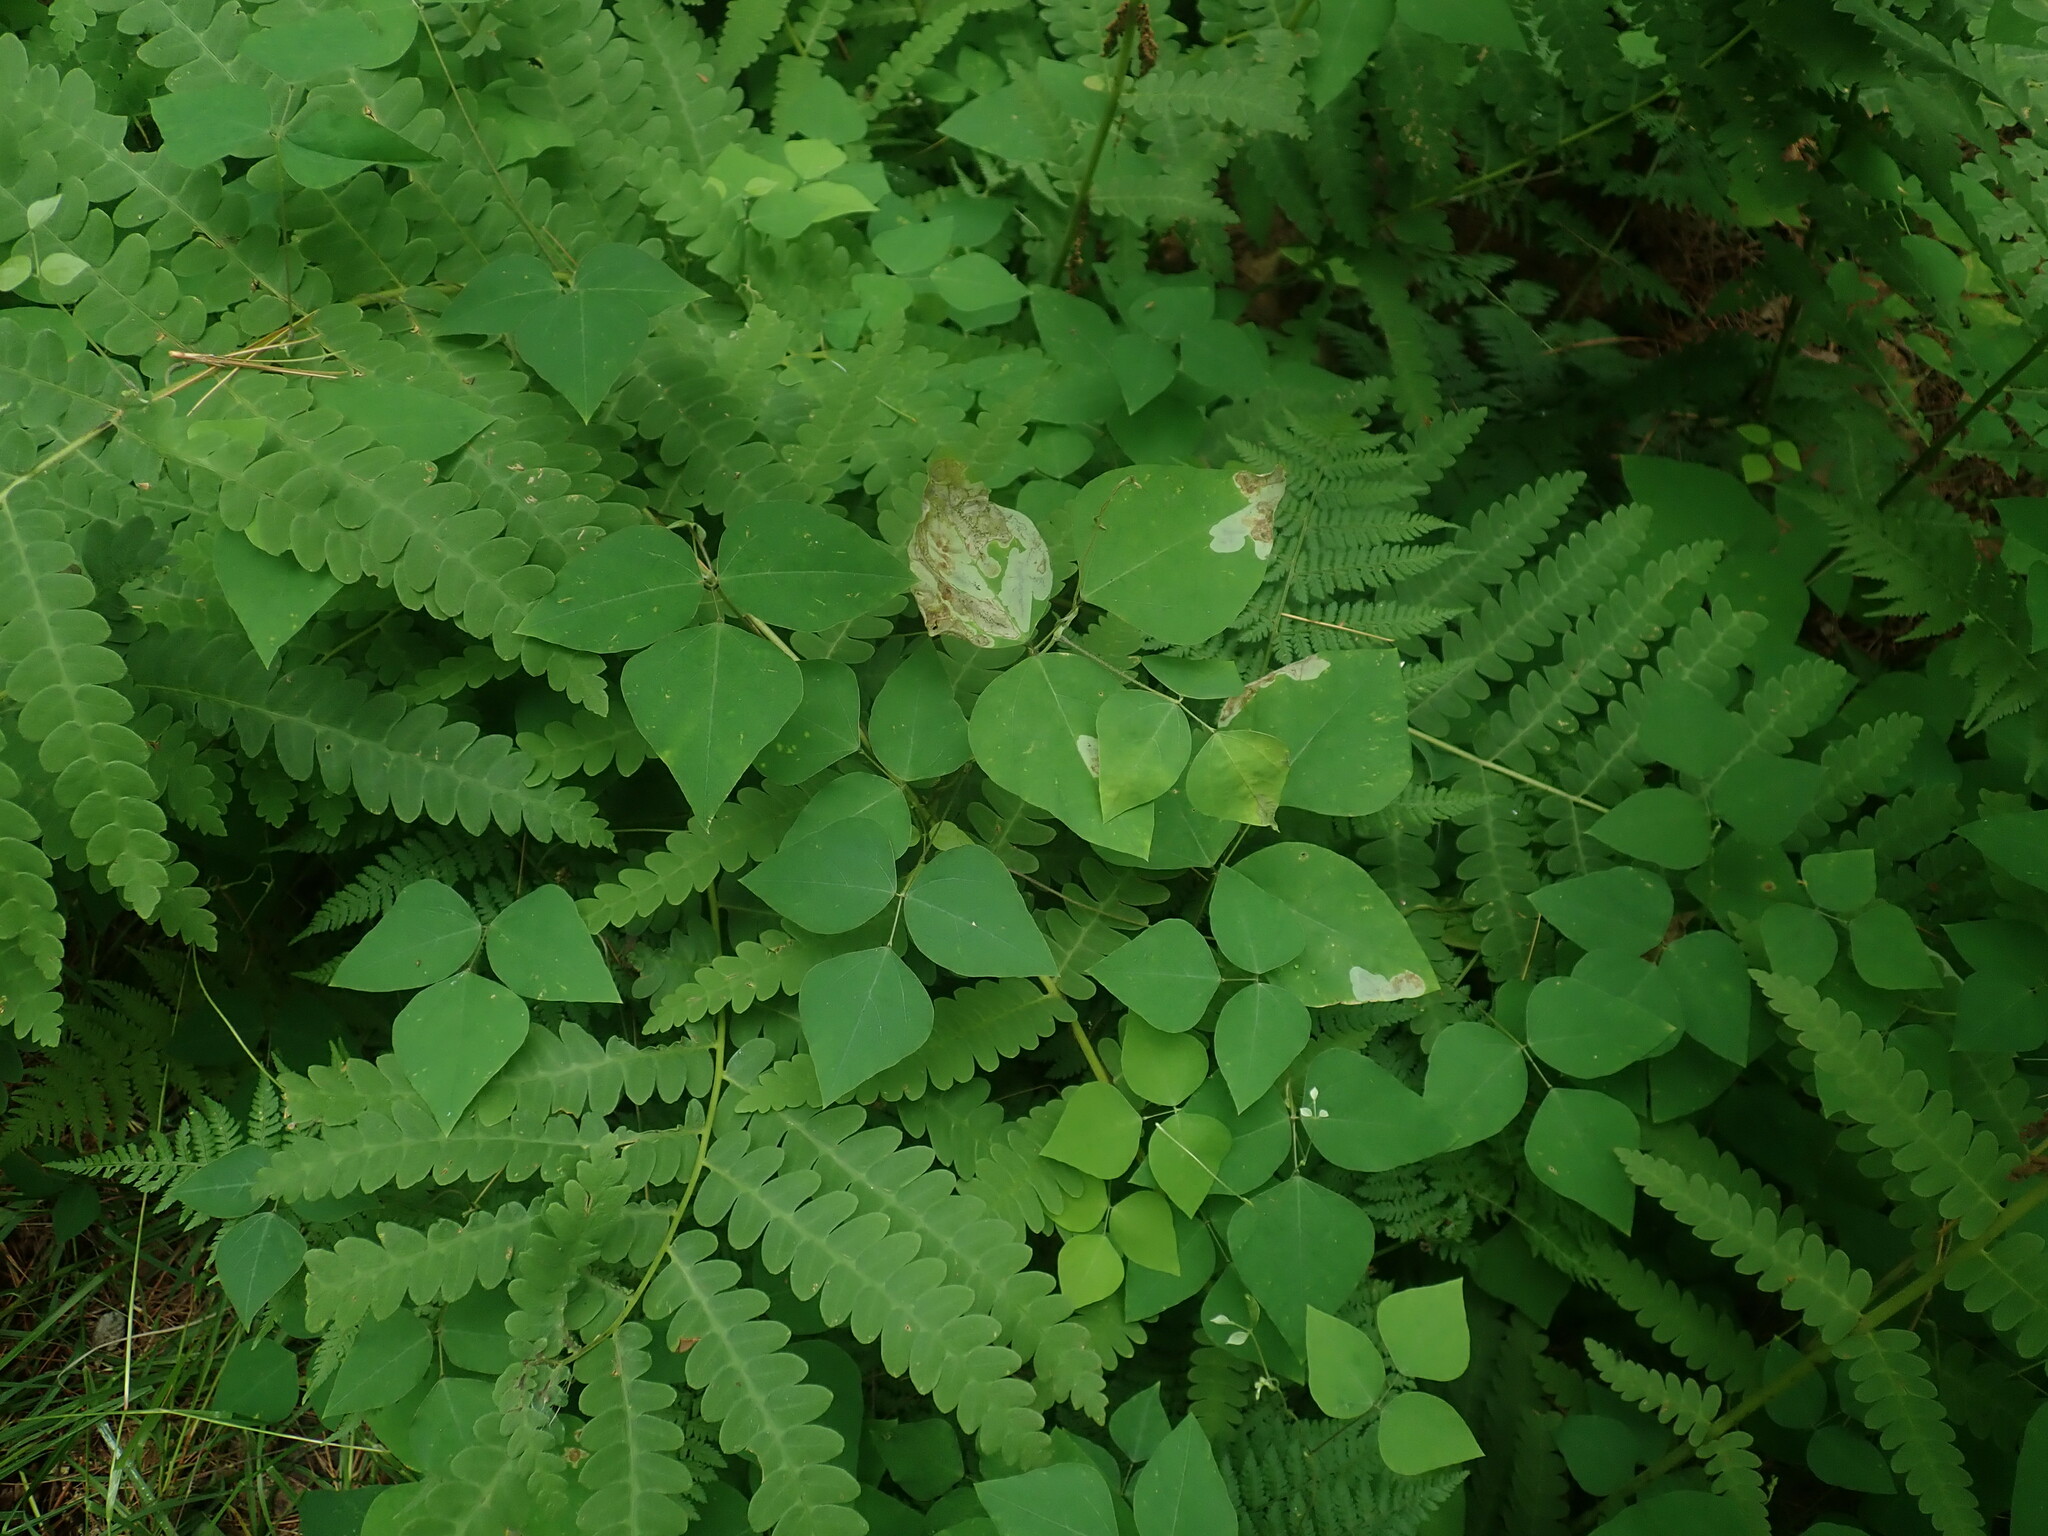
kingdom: Plantae
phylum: Tracheophyta
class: Magnoliopsida
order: Fabales
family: Fabaceae
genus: Amphicarpaea
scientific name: Amphicarpaea bracteata
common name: American hog peanut
